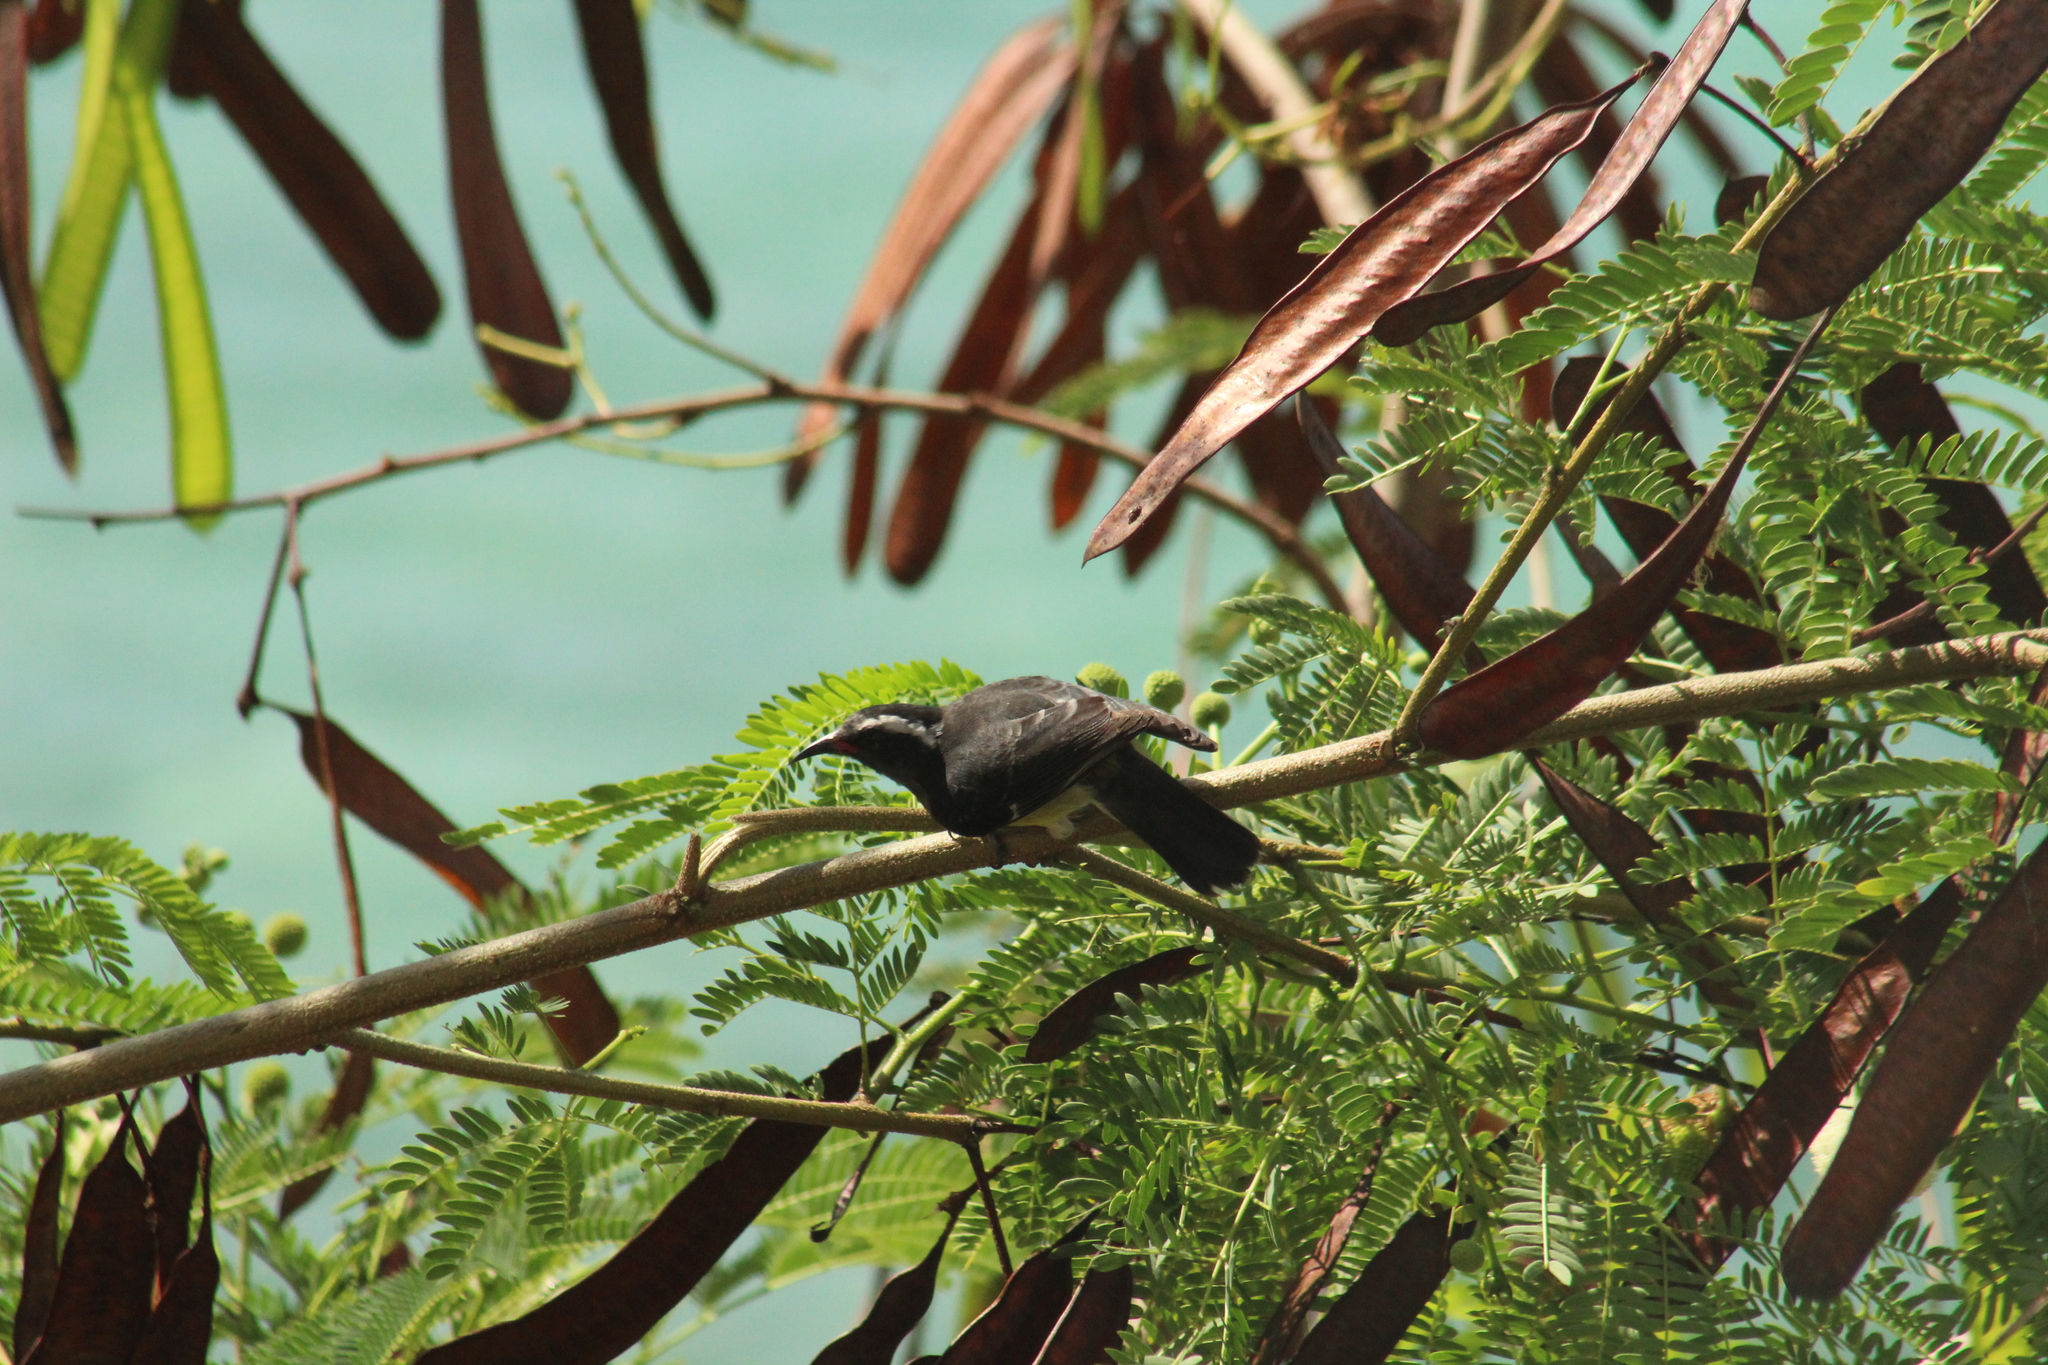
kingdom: Animalia
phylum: Chordata
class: Aves
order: Passeriformes
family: Thraupidae
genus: Coereba
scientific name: Coereba flaveola
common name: Bananaquit
